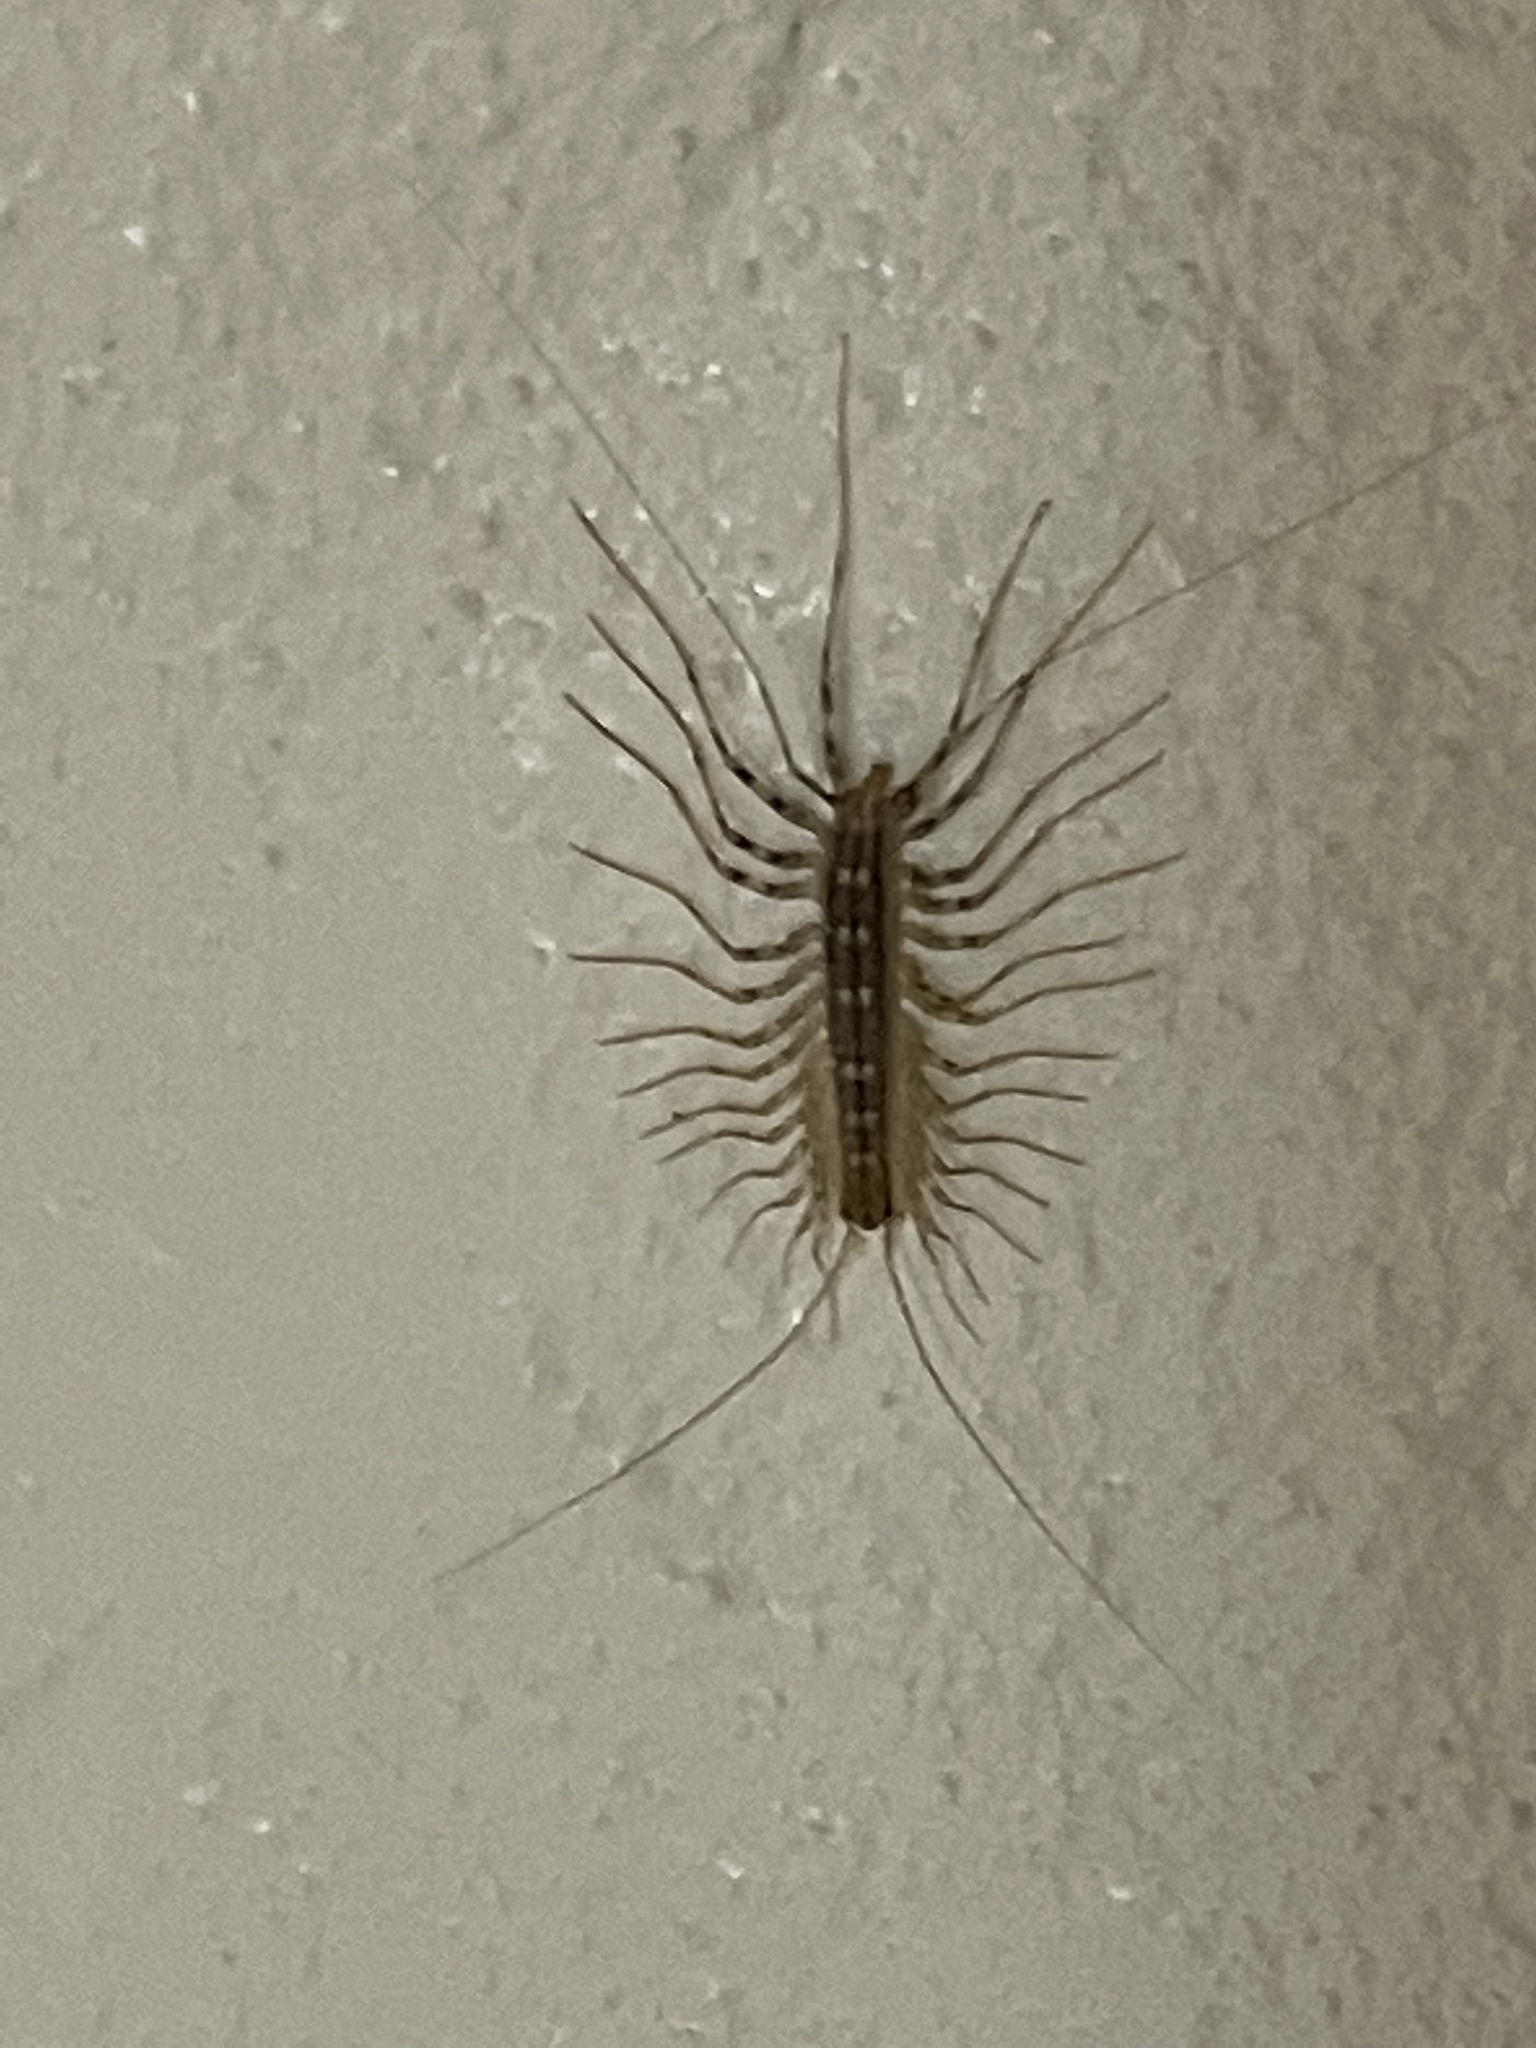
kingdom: Animalia
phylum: Arthropoda
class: Chilopoda
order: Scutigeromorpha
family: Scutigeridae
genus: Scutigera
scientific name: Scutigera coleoptrata
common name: House centipede
